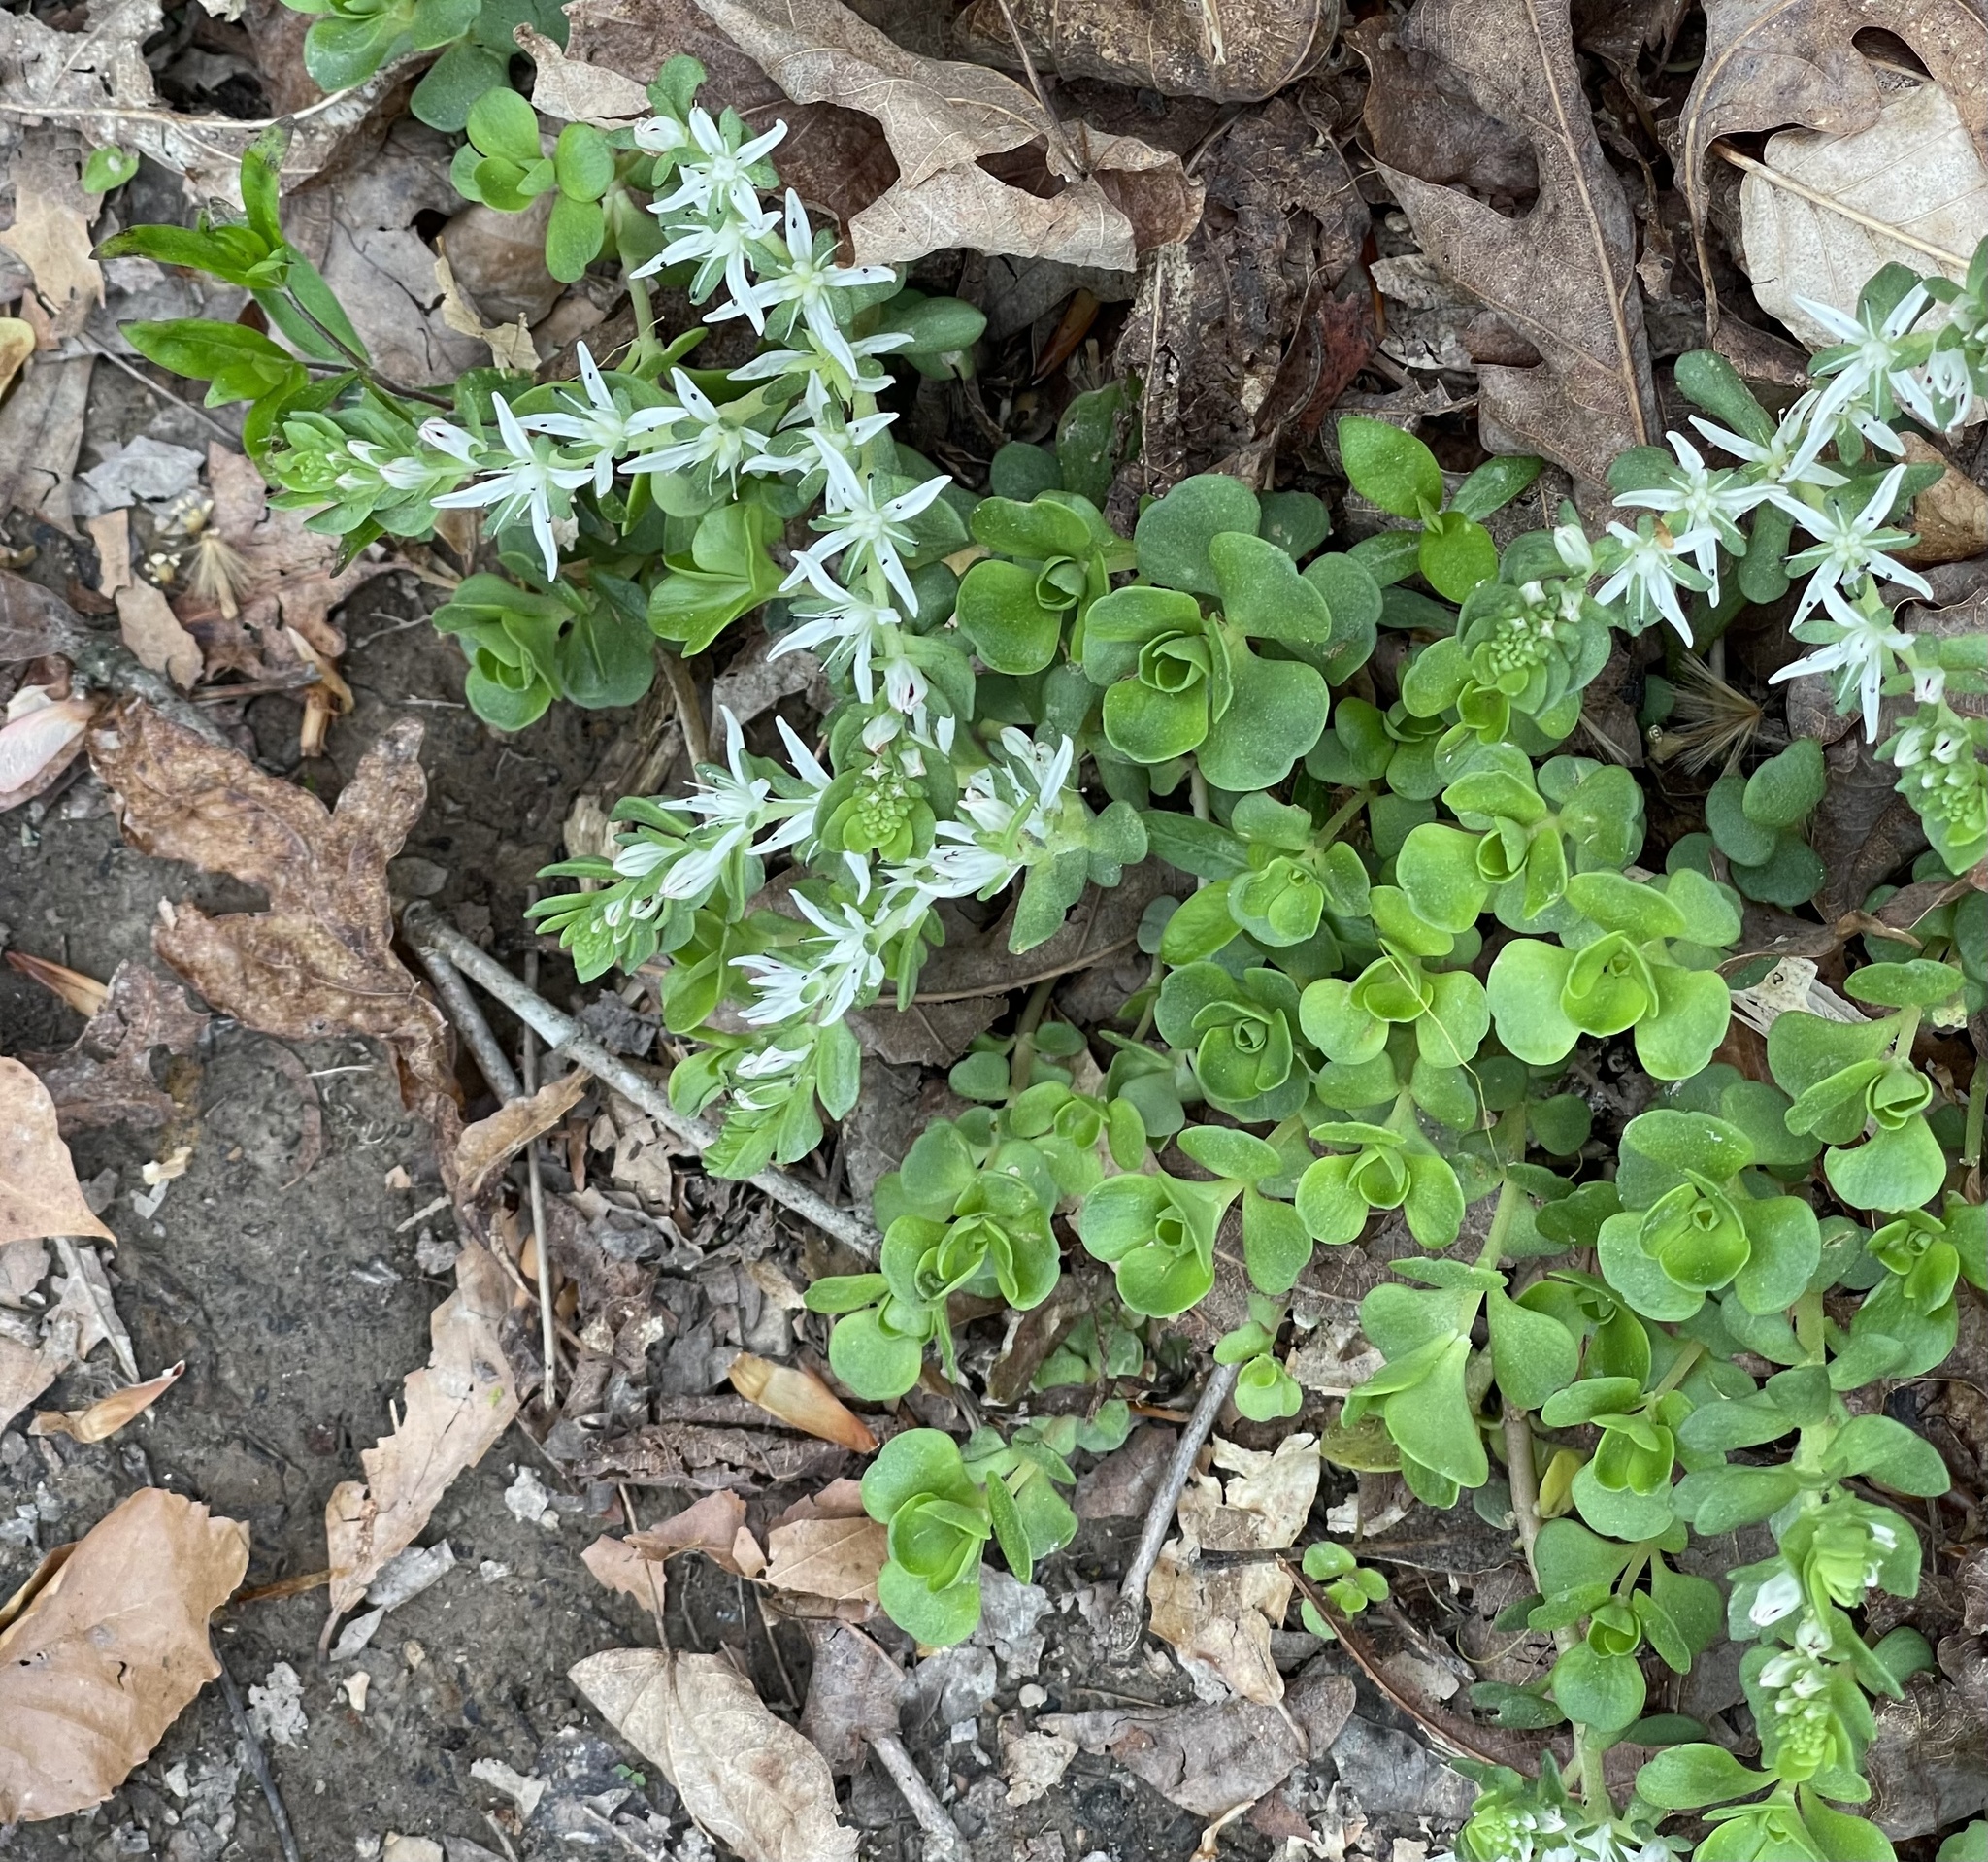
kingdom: Plantae
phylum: Tracheophyta
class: Magnoliopsida
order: Saxifragales
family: Crassulaceae
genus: Sedum
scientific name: Sedum ternatum
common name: Wild stonecrop
